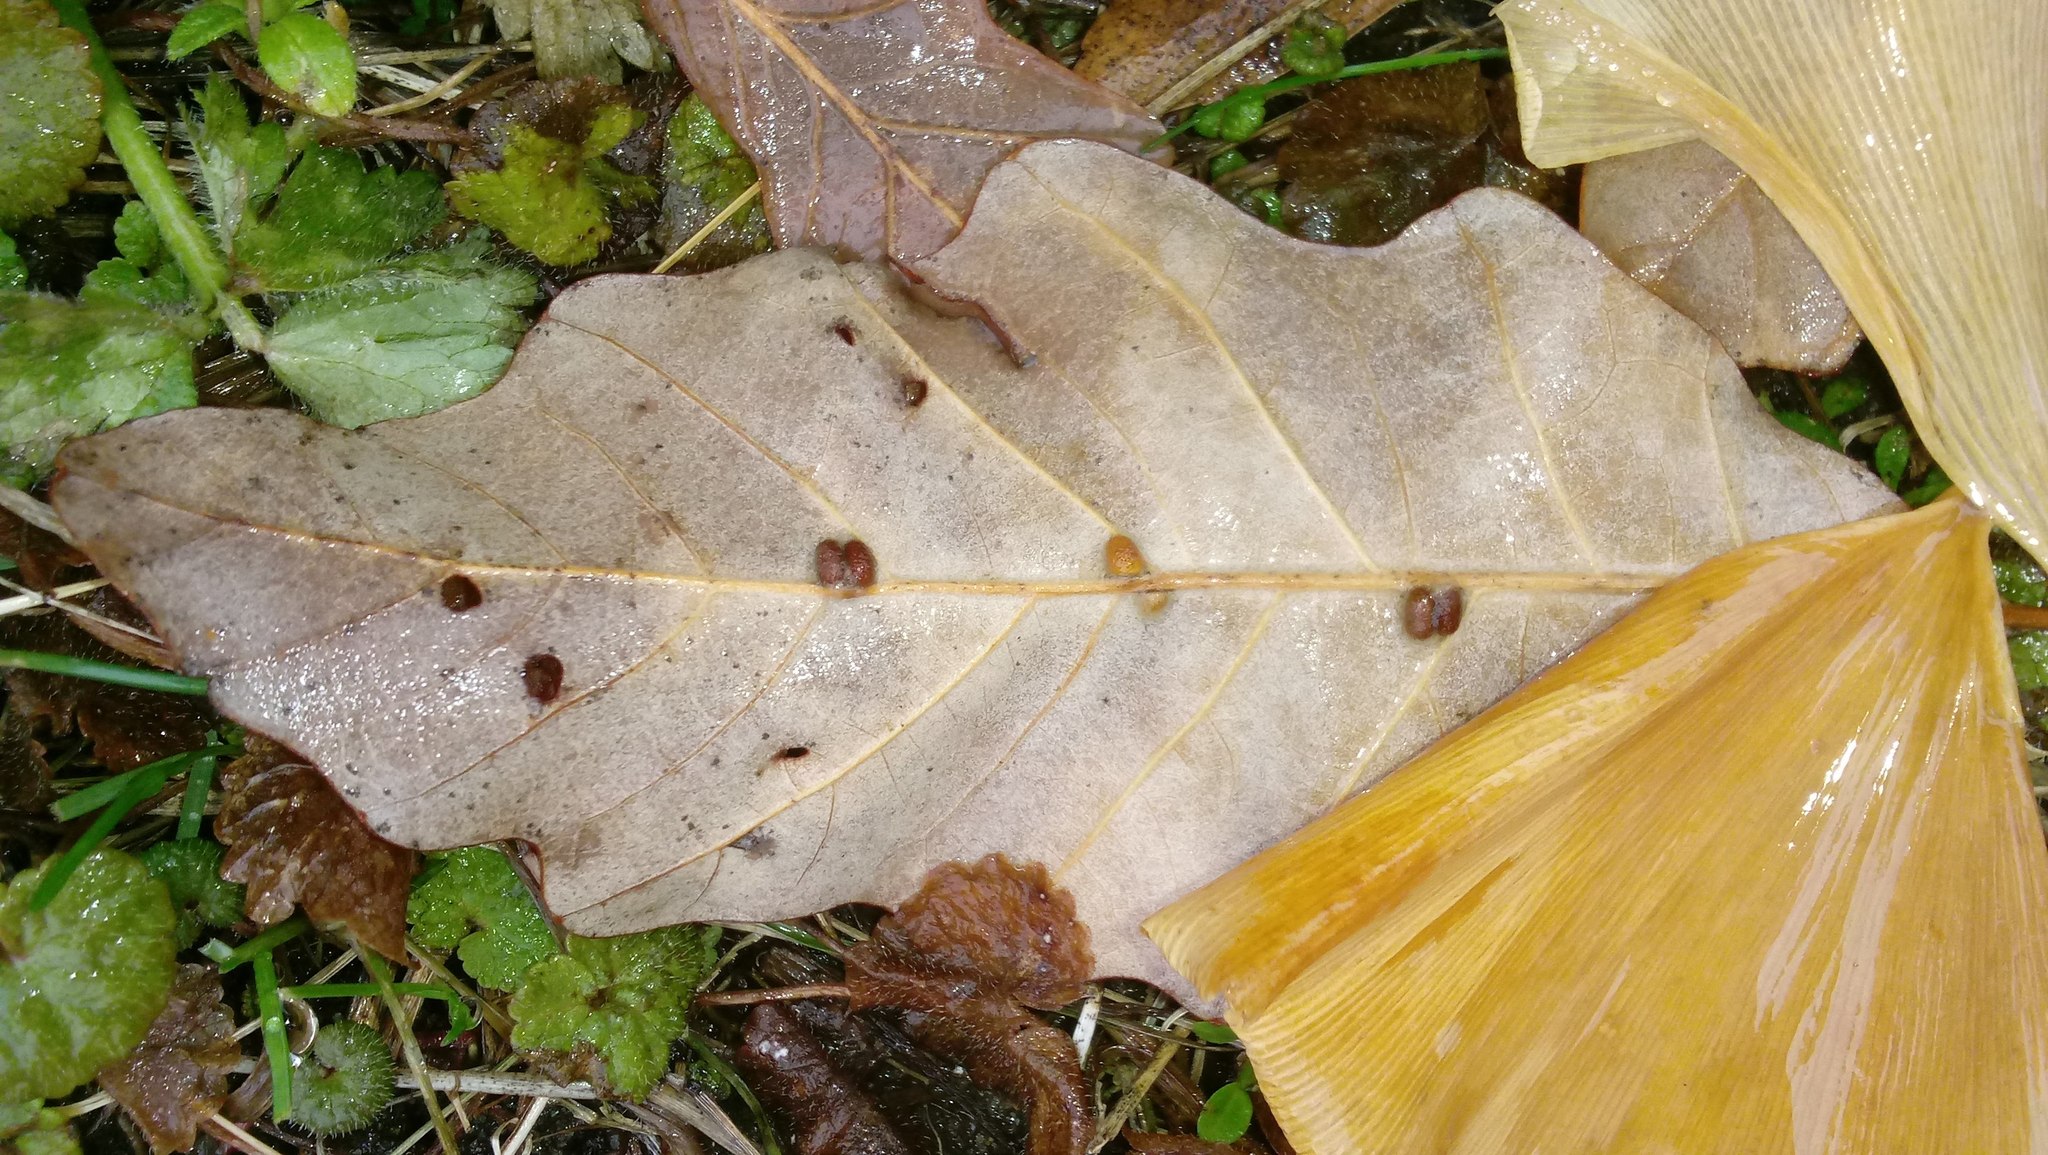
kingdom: Animalia
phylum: Arthropoda
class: Insecta
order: Hymenoptera
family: Cynipidae
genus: Andricus
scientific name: Andricus Druon ignotum
